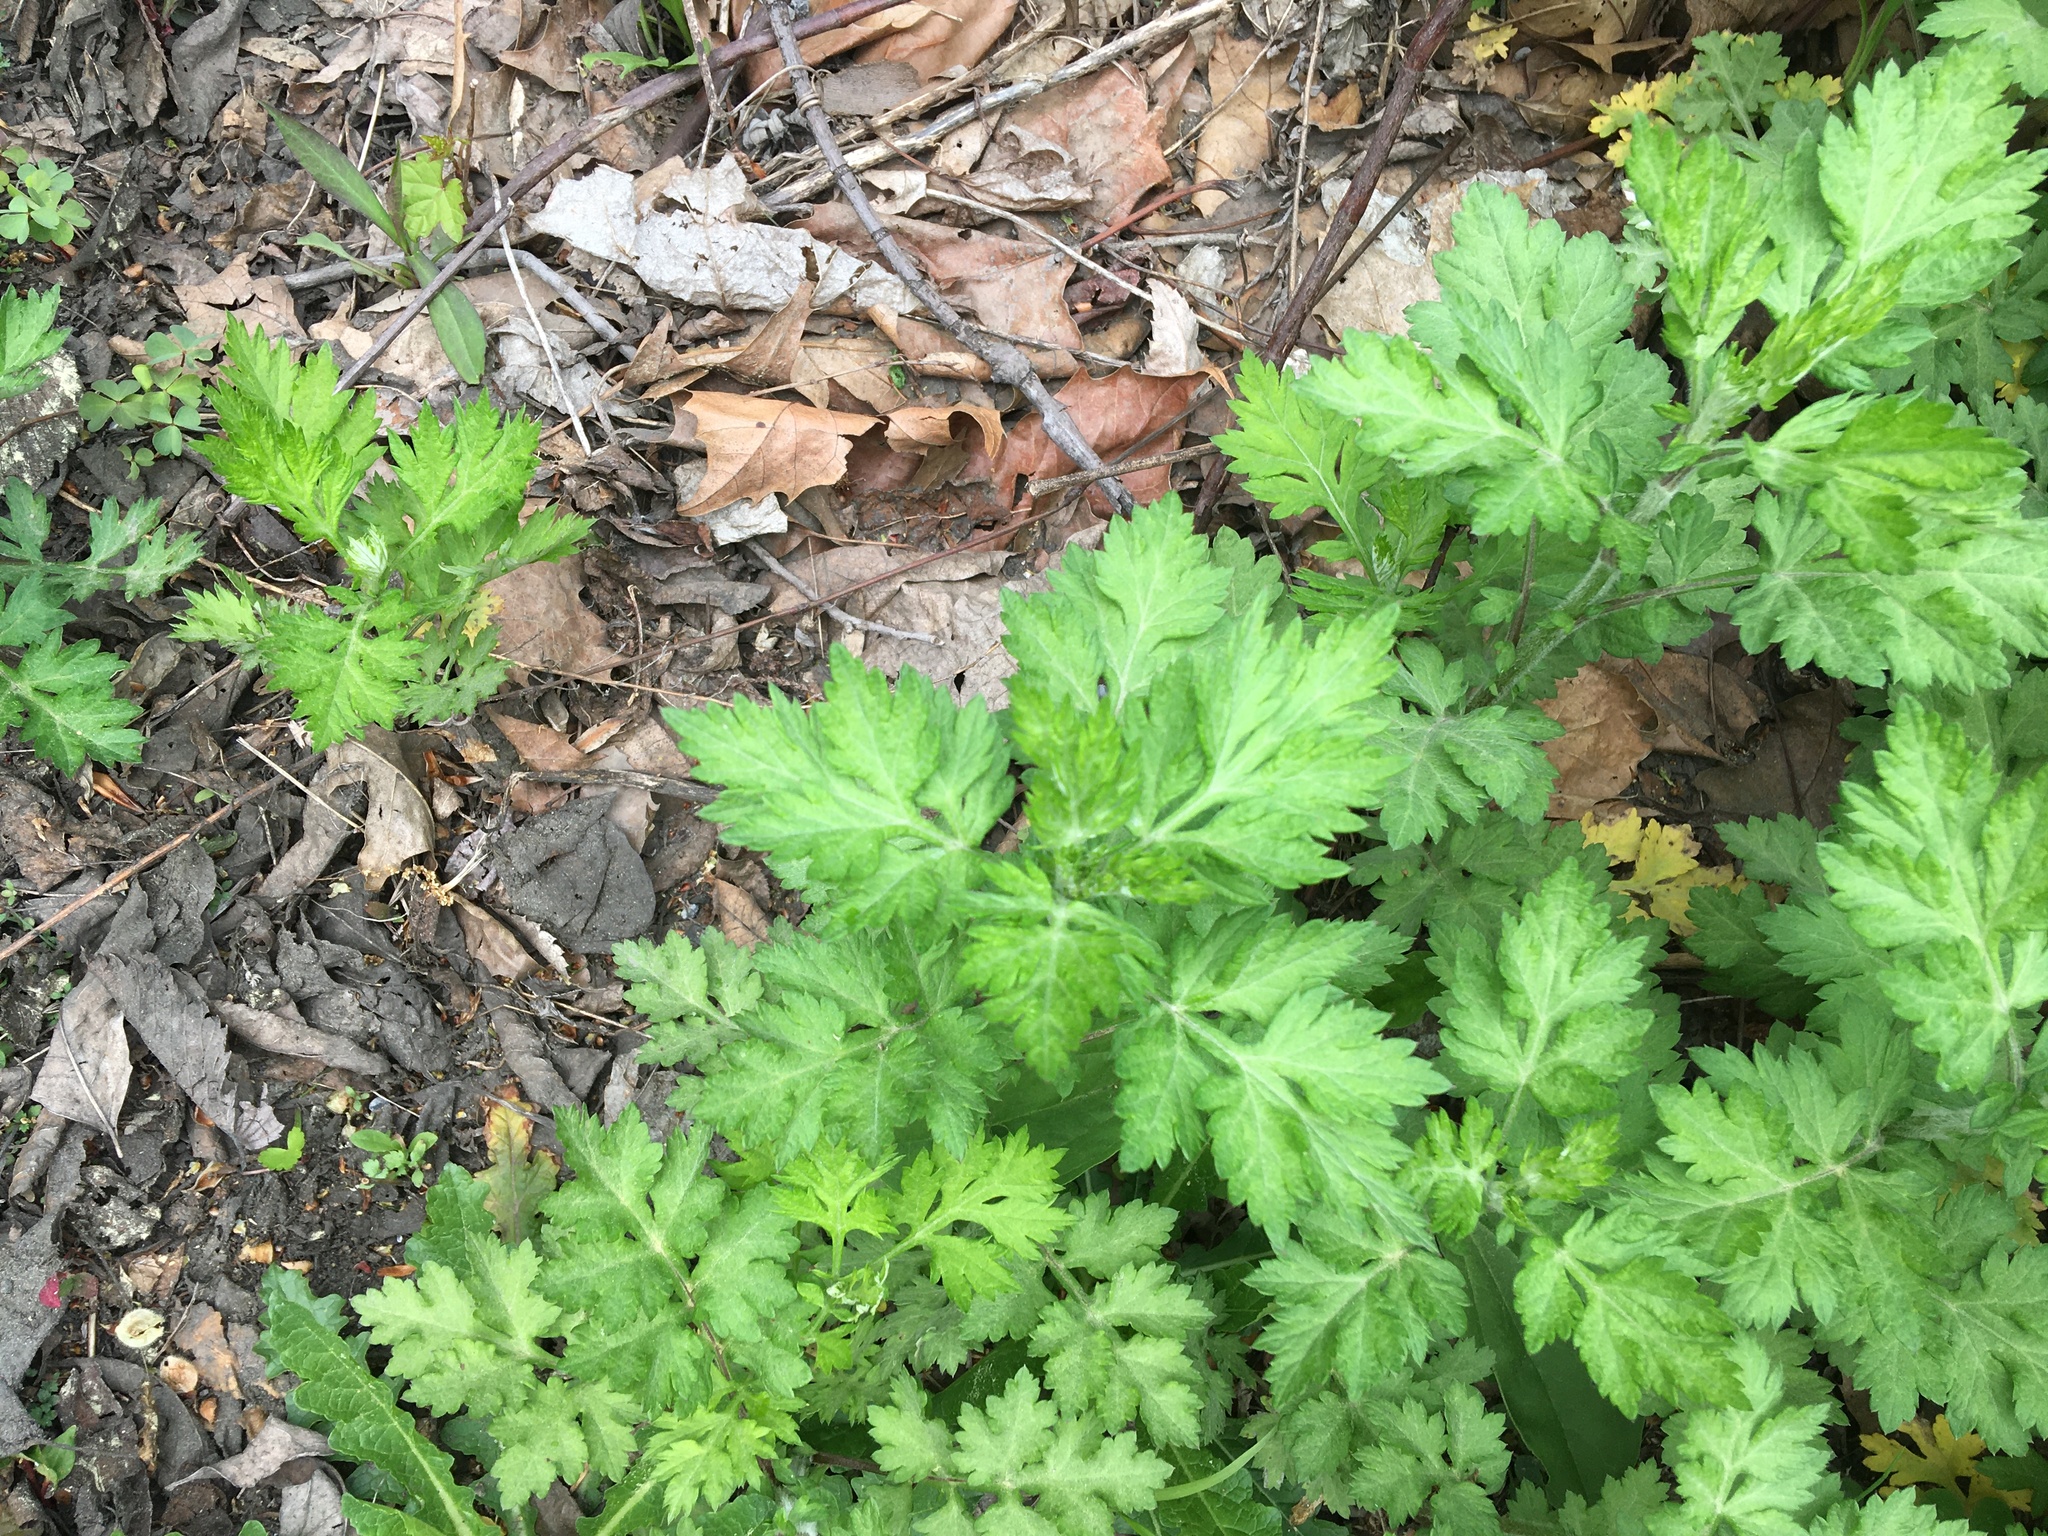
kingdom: Plantae
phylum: Tracheophyta
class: Magnoliopsida
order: Asterales
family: Asteraceae
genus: Artemisia
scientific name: Artemisia vulgaris
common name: Mugwort
